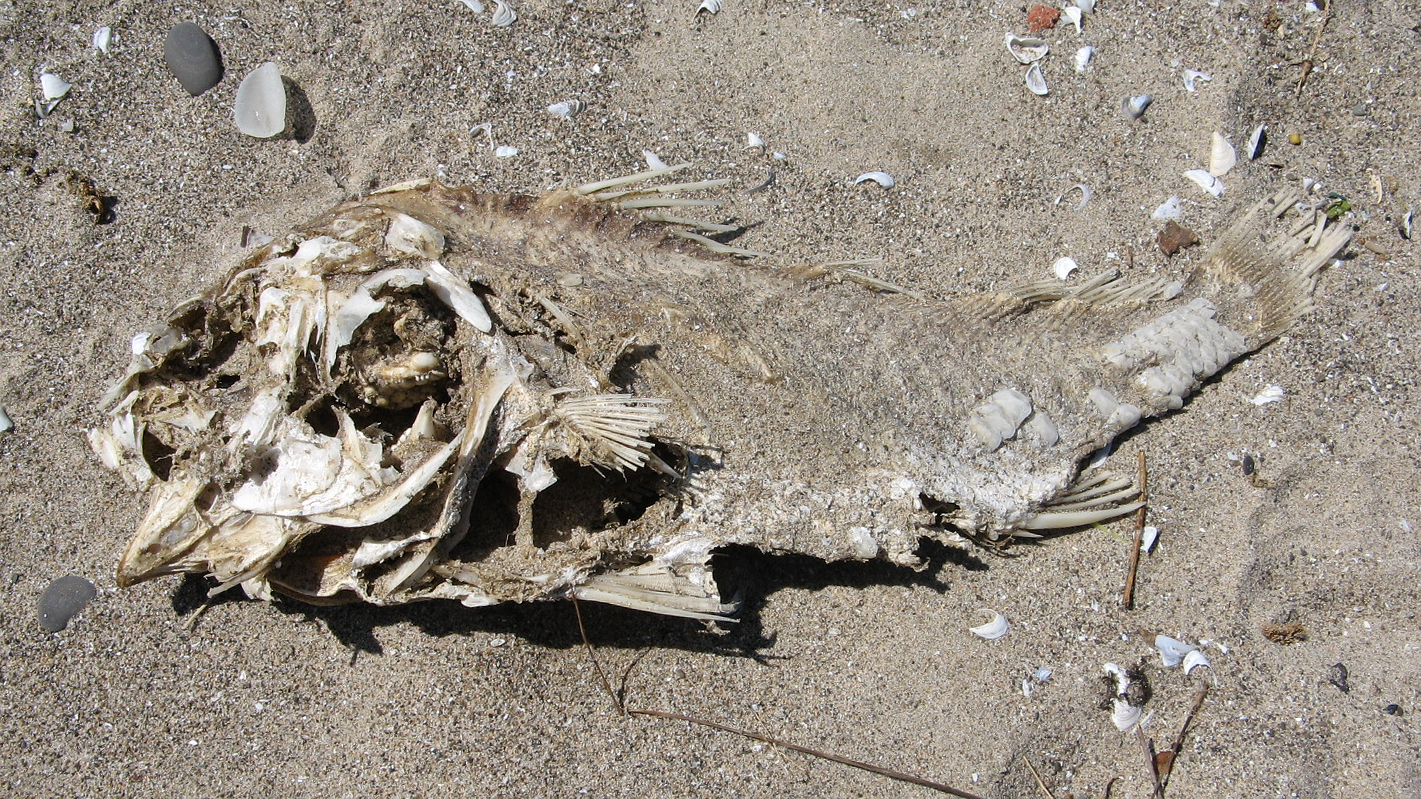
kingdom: Animalia
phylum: Chordata
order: Perciformes
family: Sciaenidae
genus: Aplodinotus
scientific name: Aplodinotus grunniens
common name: Freshwater drum
